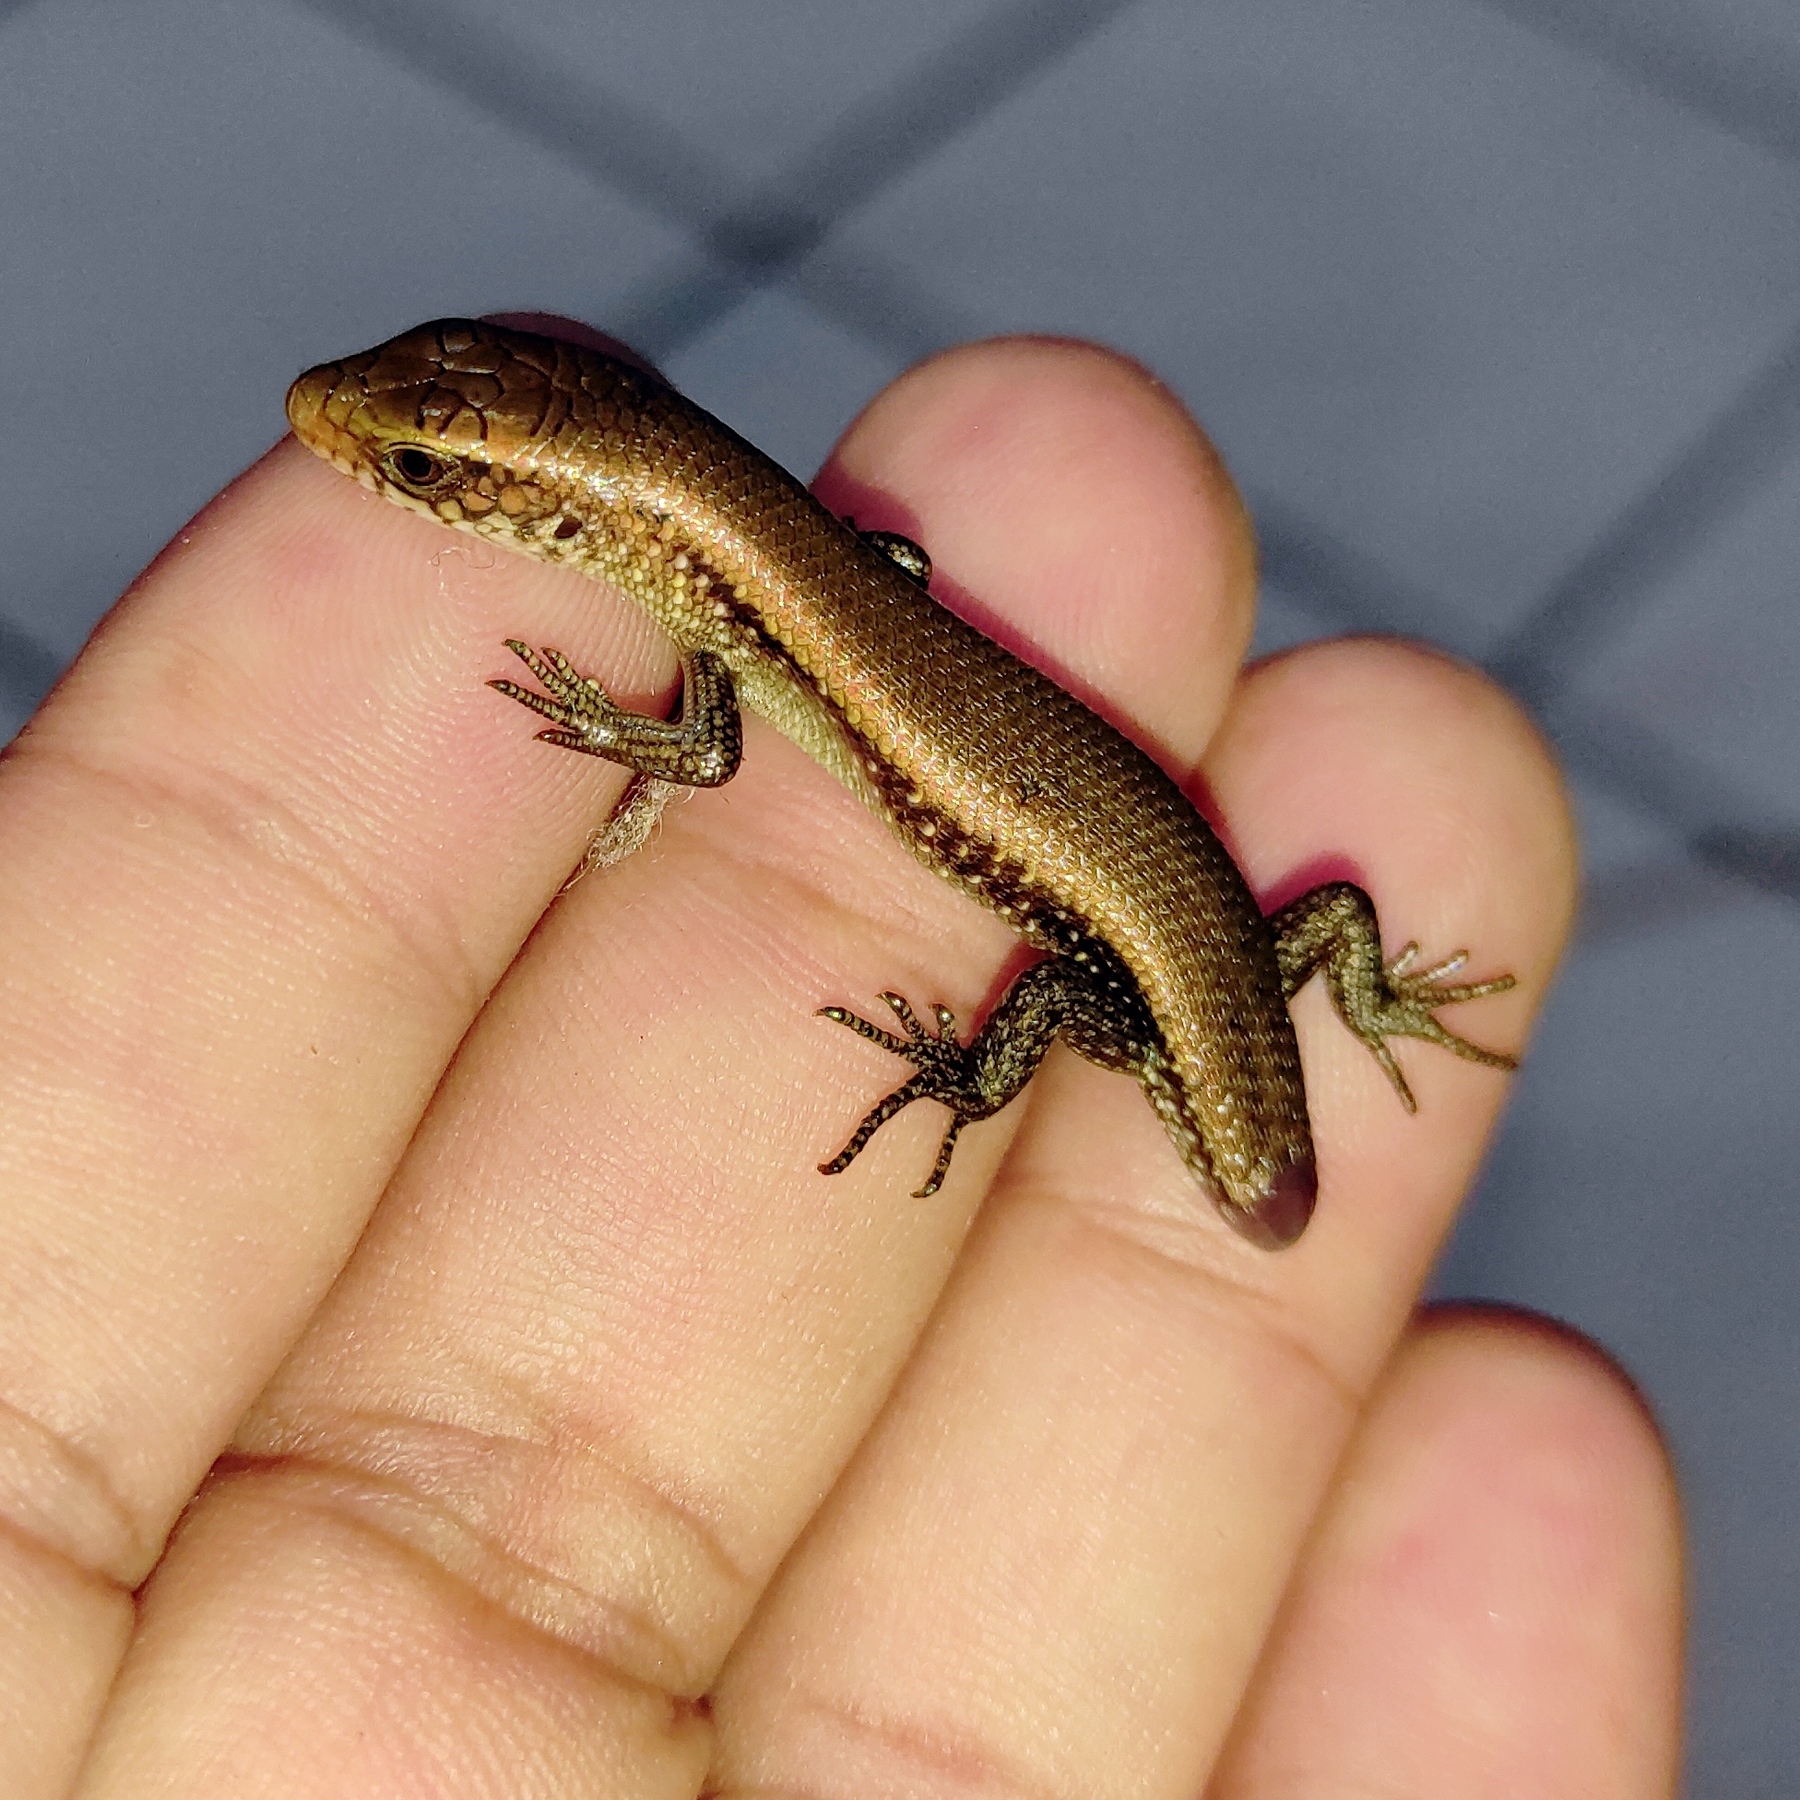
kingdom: Animalia
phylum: Chordata
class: Squamata
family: Scincidae
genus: Eutropis
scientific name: Eutropis multifasciata
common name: Common mabuya
